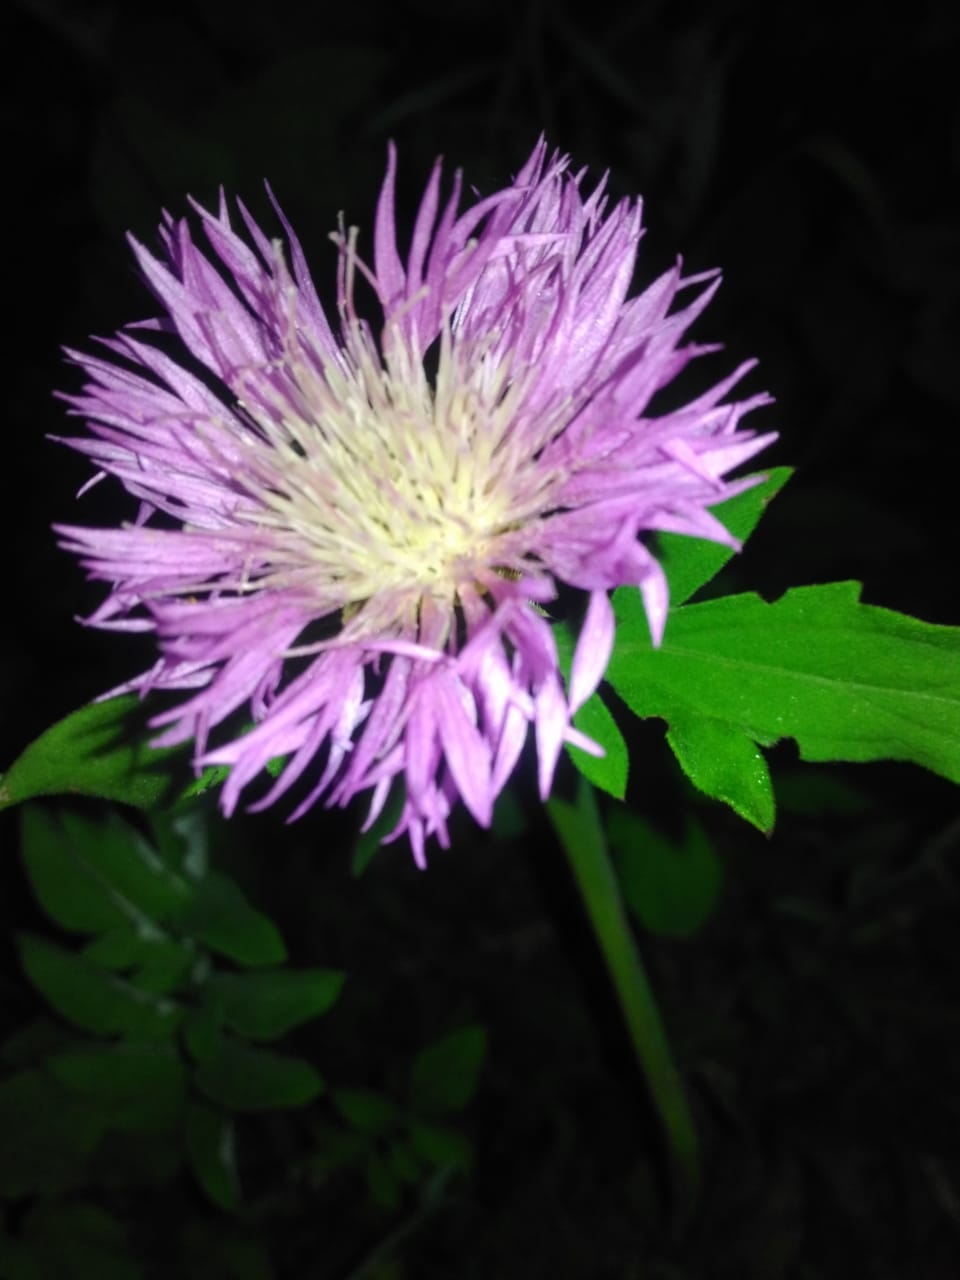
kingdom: Plantae
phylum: Tracheophyta
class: Magnoliopsida
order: Asterales
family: Asteraceae
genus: Psephellus
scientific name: Psephellus dealbatus
